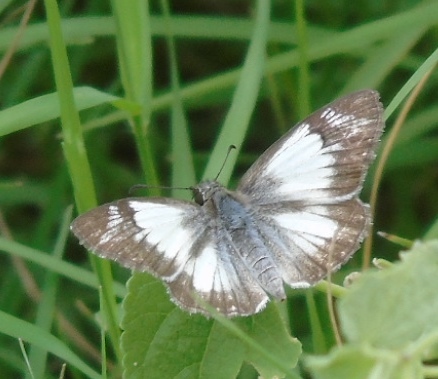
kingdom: Animalia
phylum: Arthropoda
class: Insecta
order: Lepidoptera
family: Hesperiidae
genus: Heliopetes
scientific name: Heliopetes laviana
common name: Laviana white-skipper
